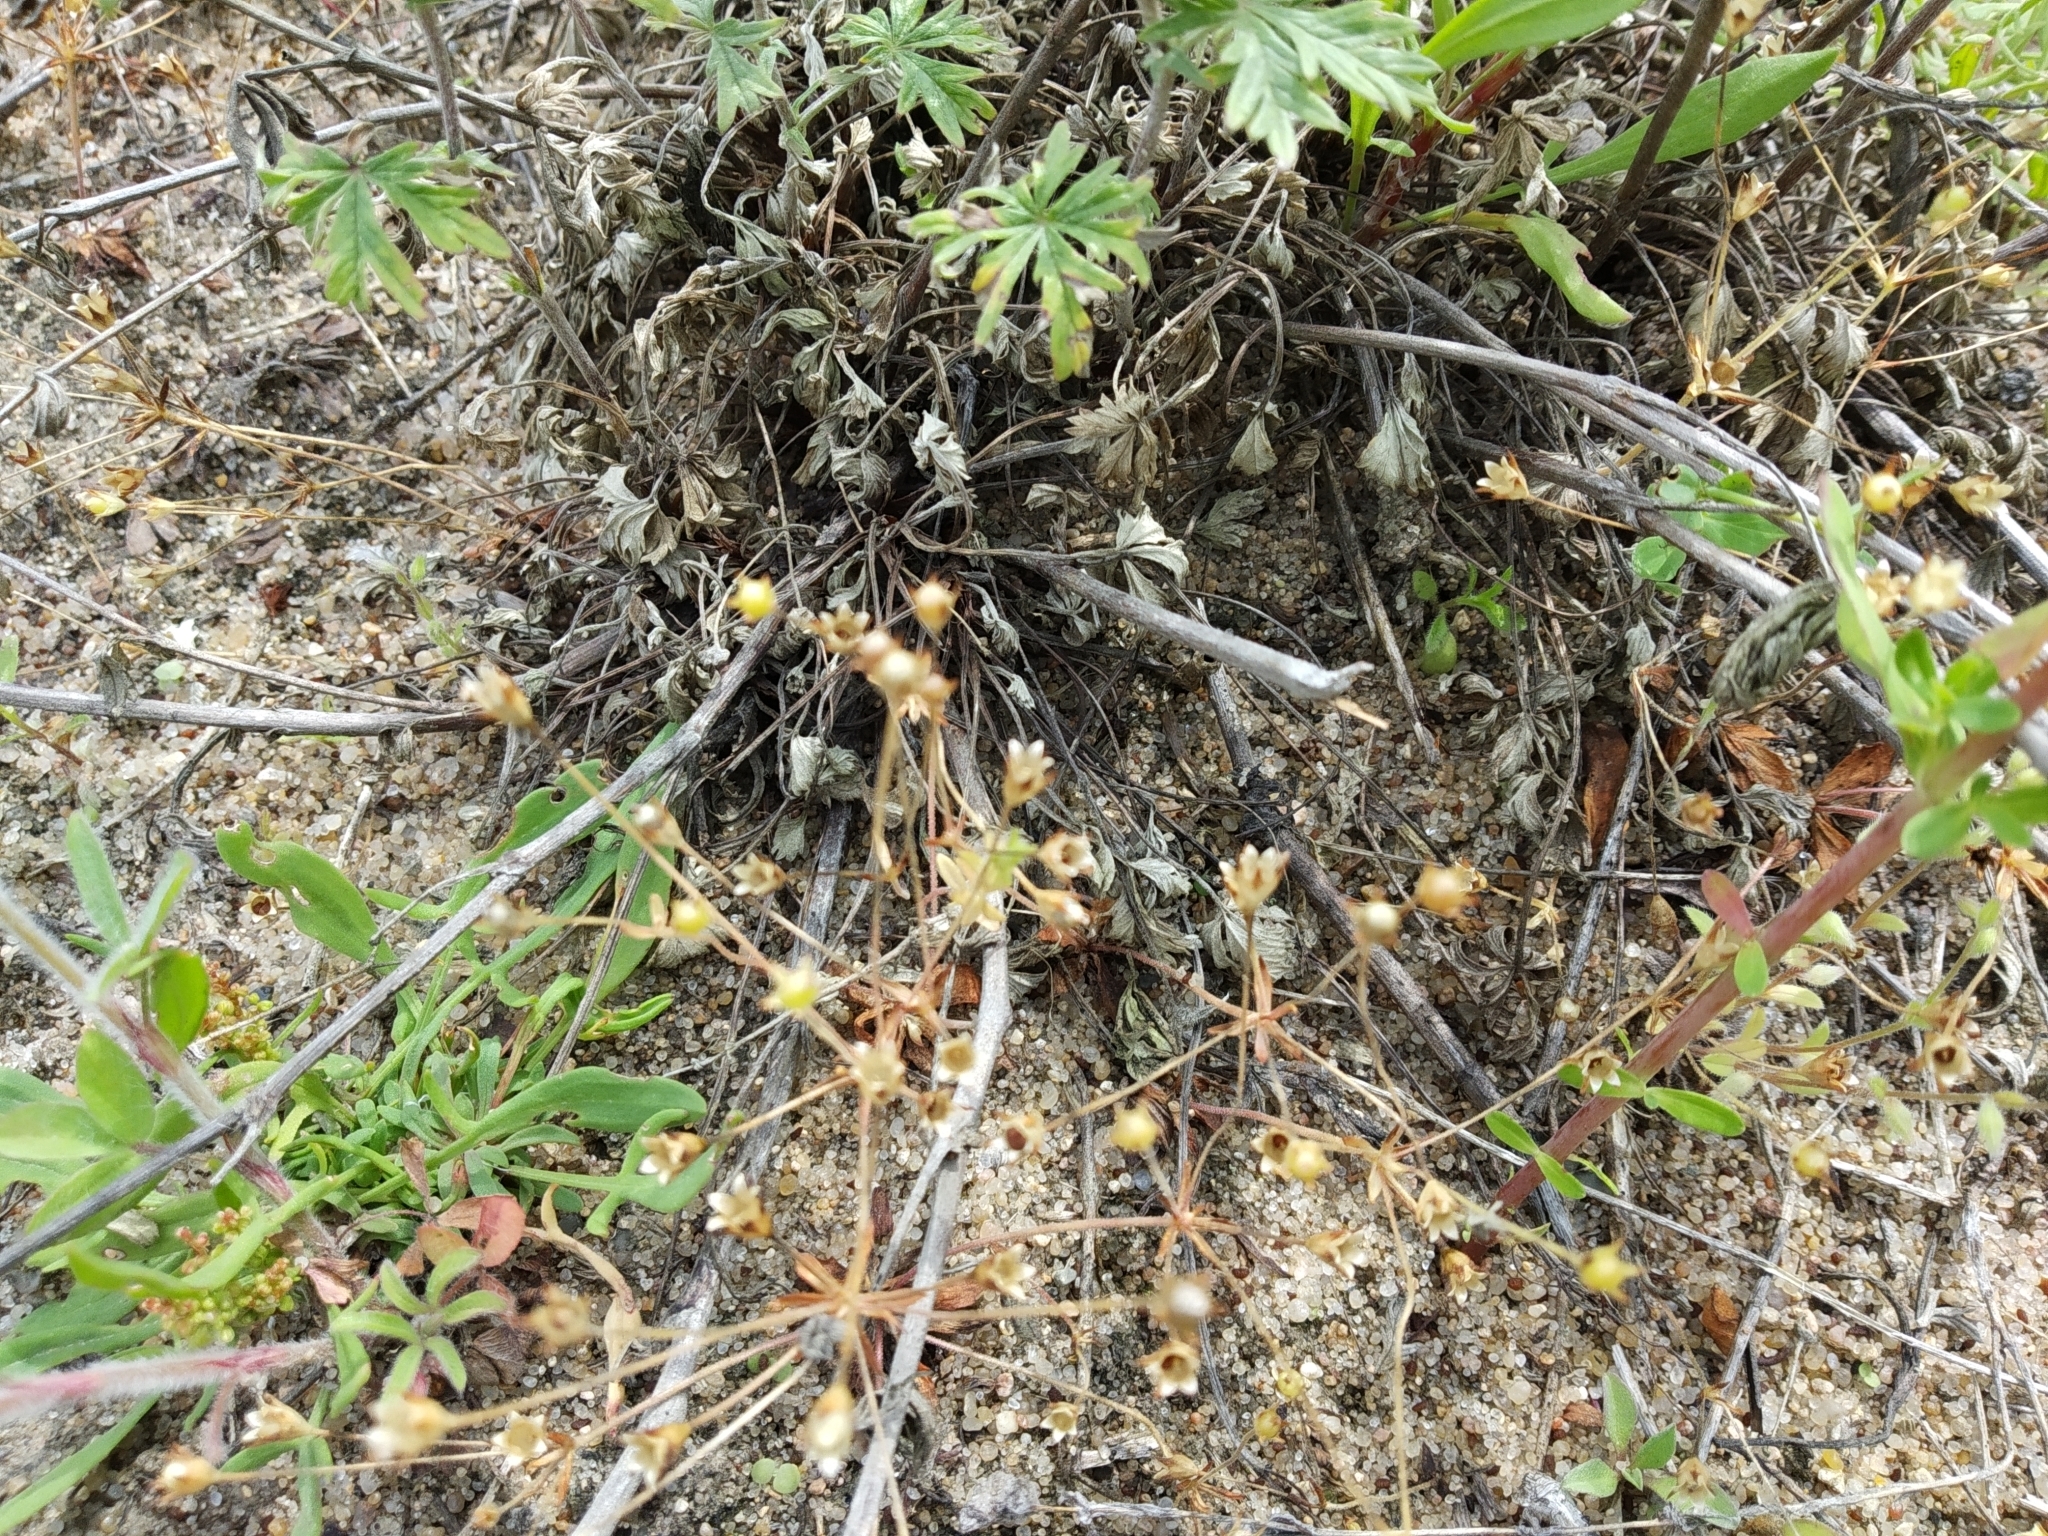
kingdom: Plantae
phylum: Tracheophyta
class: Magnoliopsida
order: Ericales
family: Primulaceae
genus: Androsace
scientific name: Androsace septentrionalis
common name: Hairy northern fairy-candelabra
